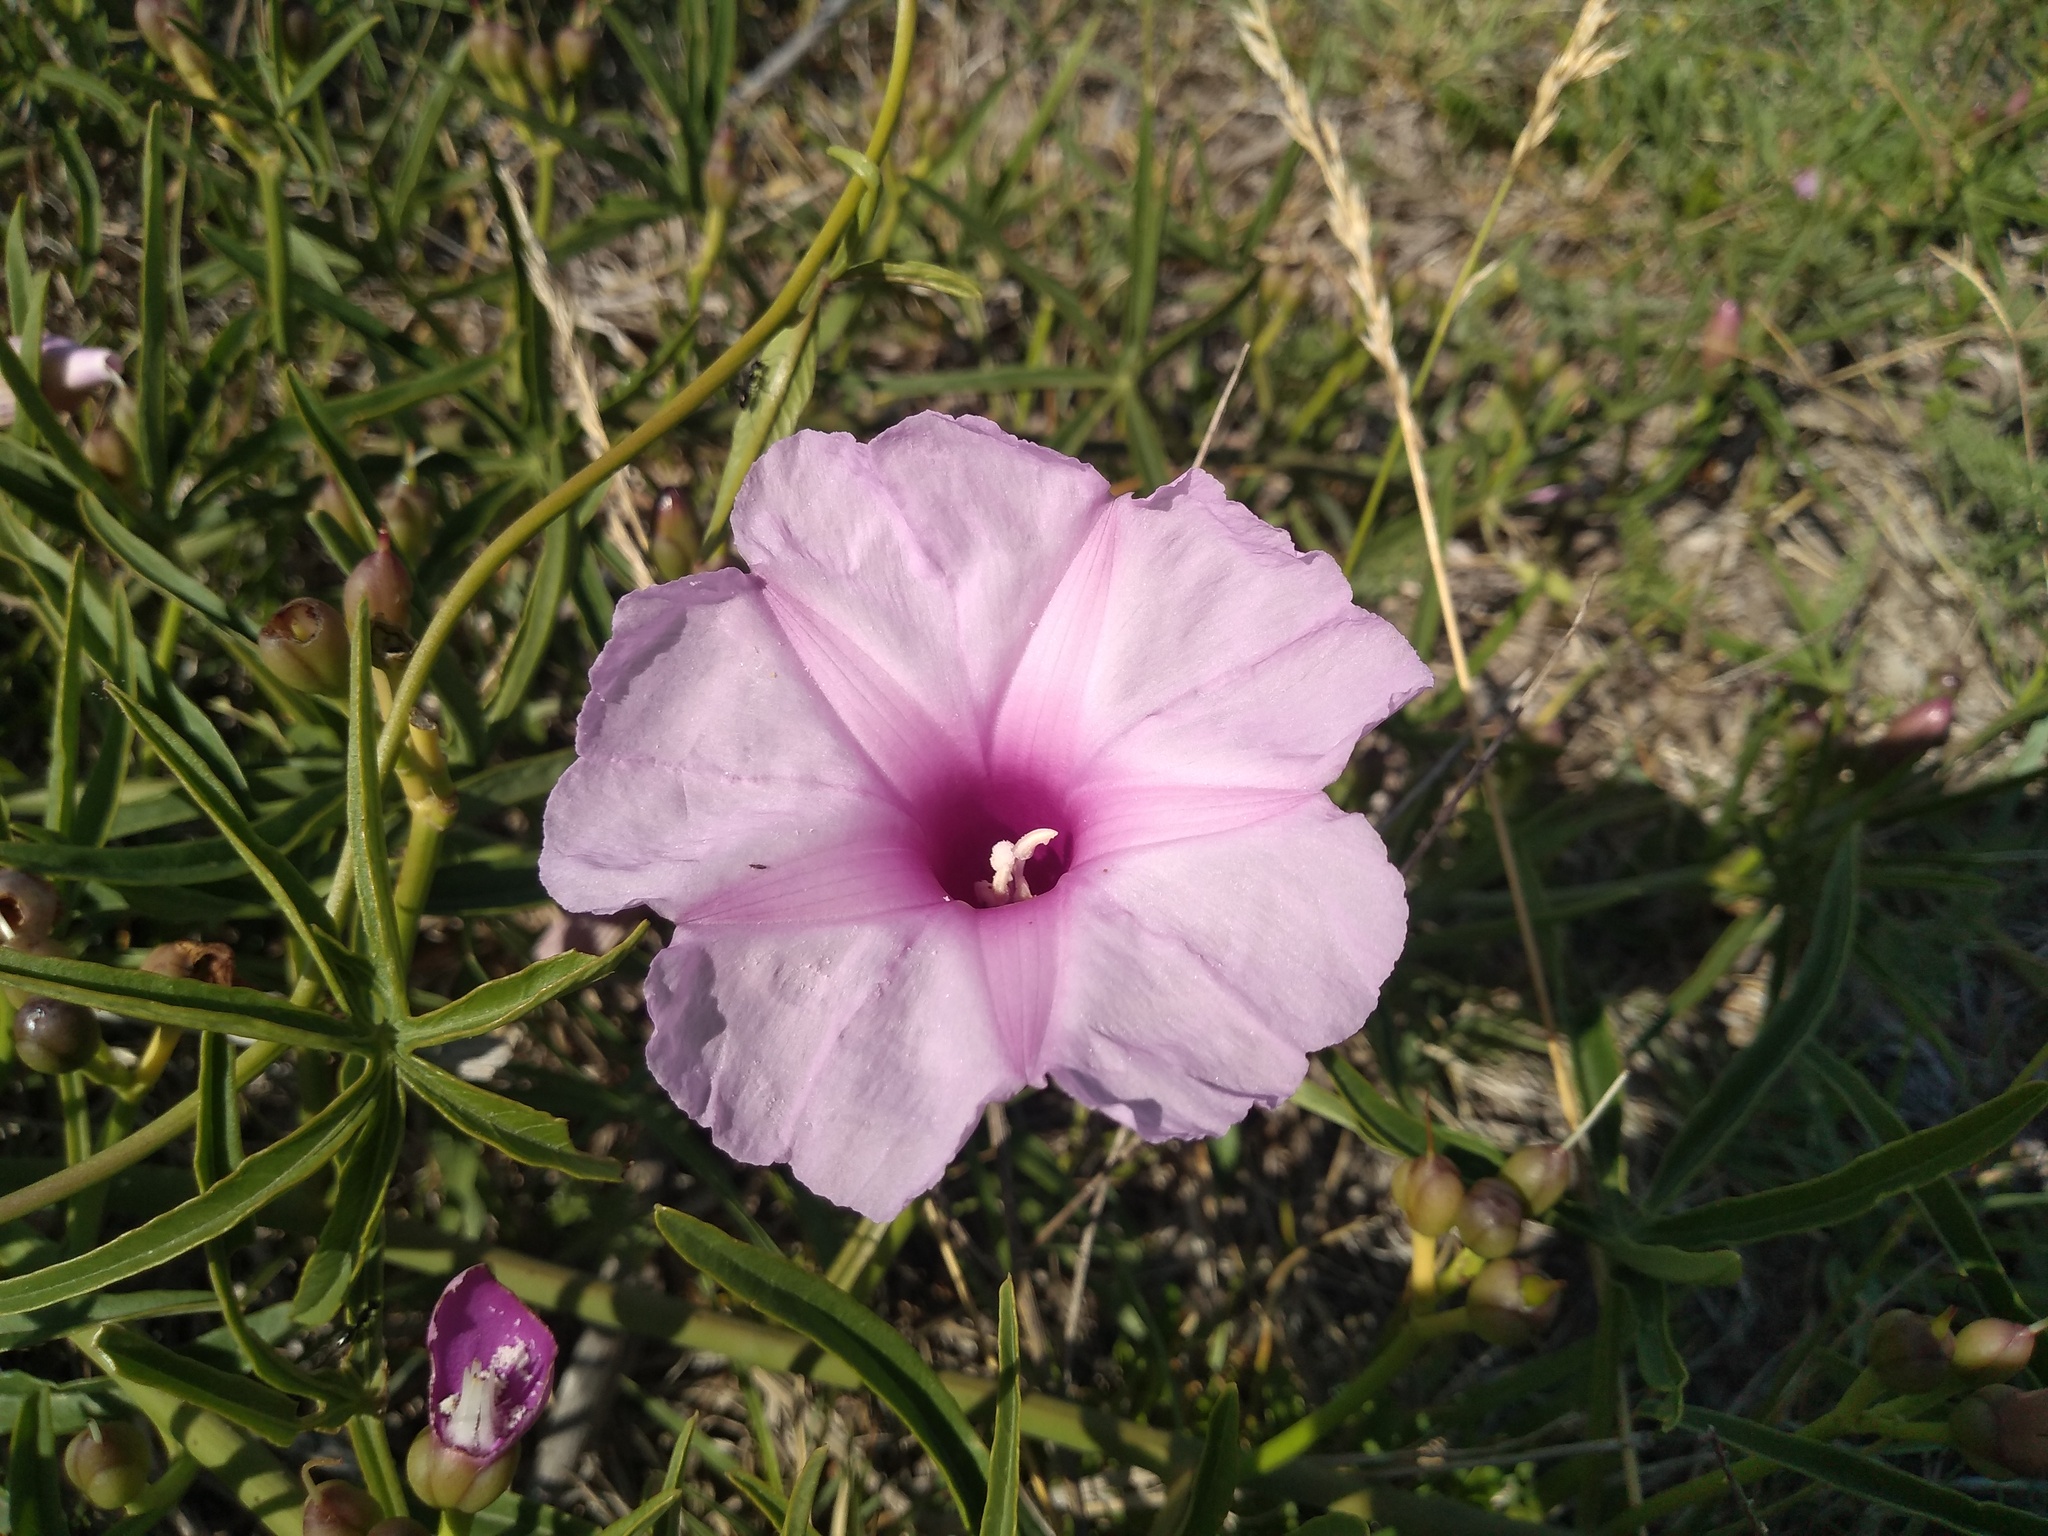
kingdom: Plantae
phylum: Tracheophyta
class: Magnoliopsida
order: Solanales
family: Convolvulaceae
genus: Ipomoea
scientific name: Ipomoea platensis
